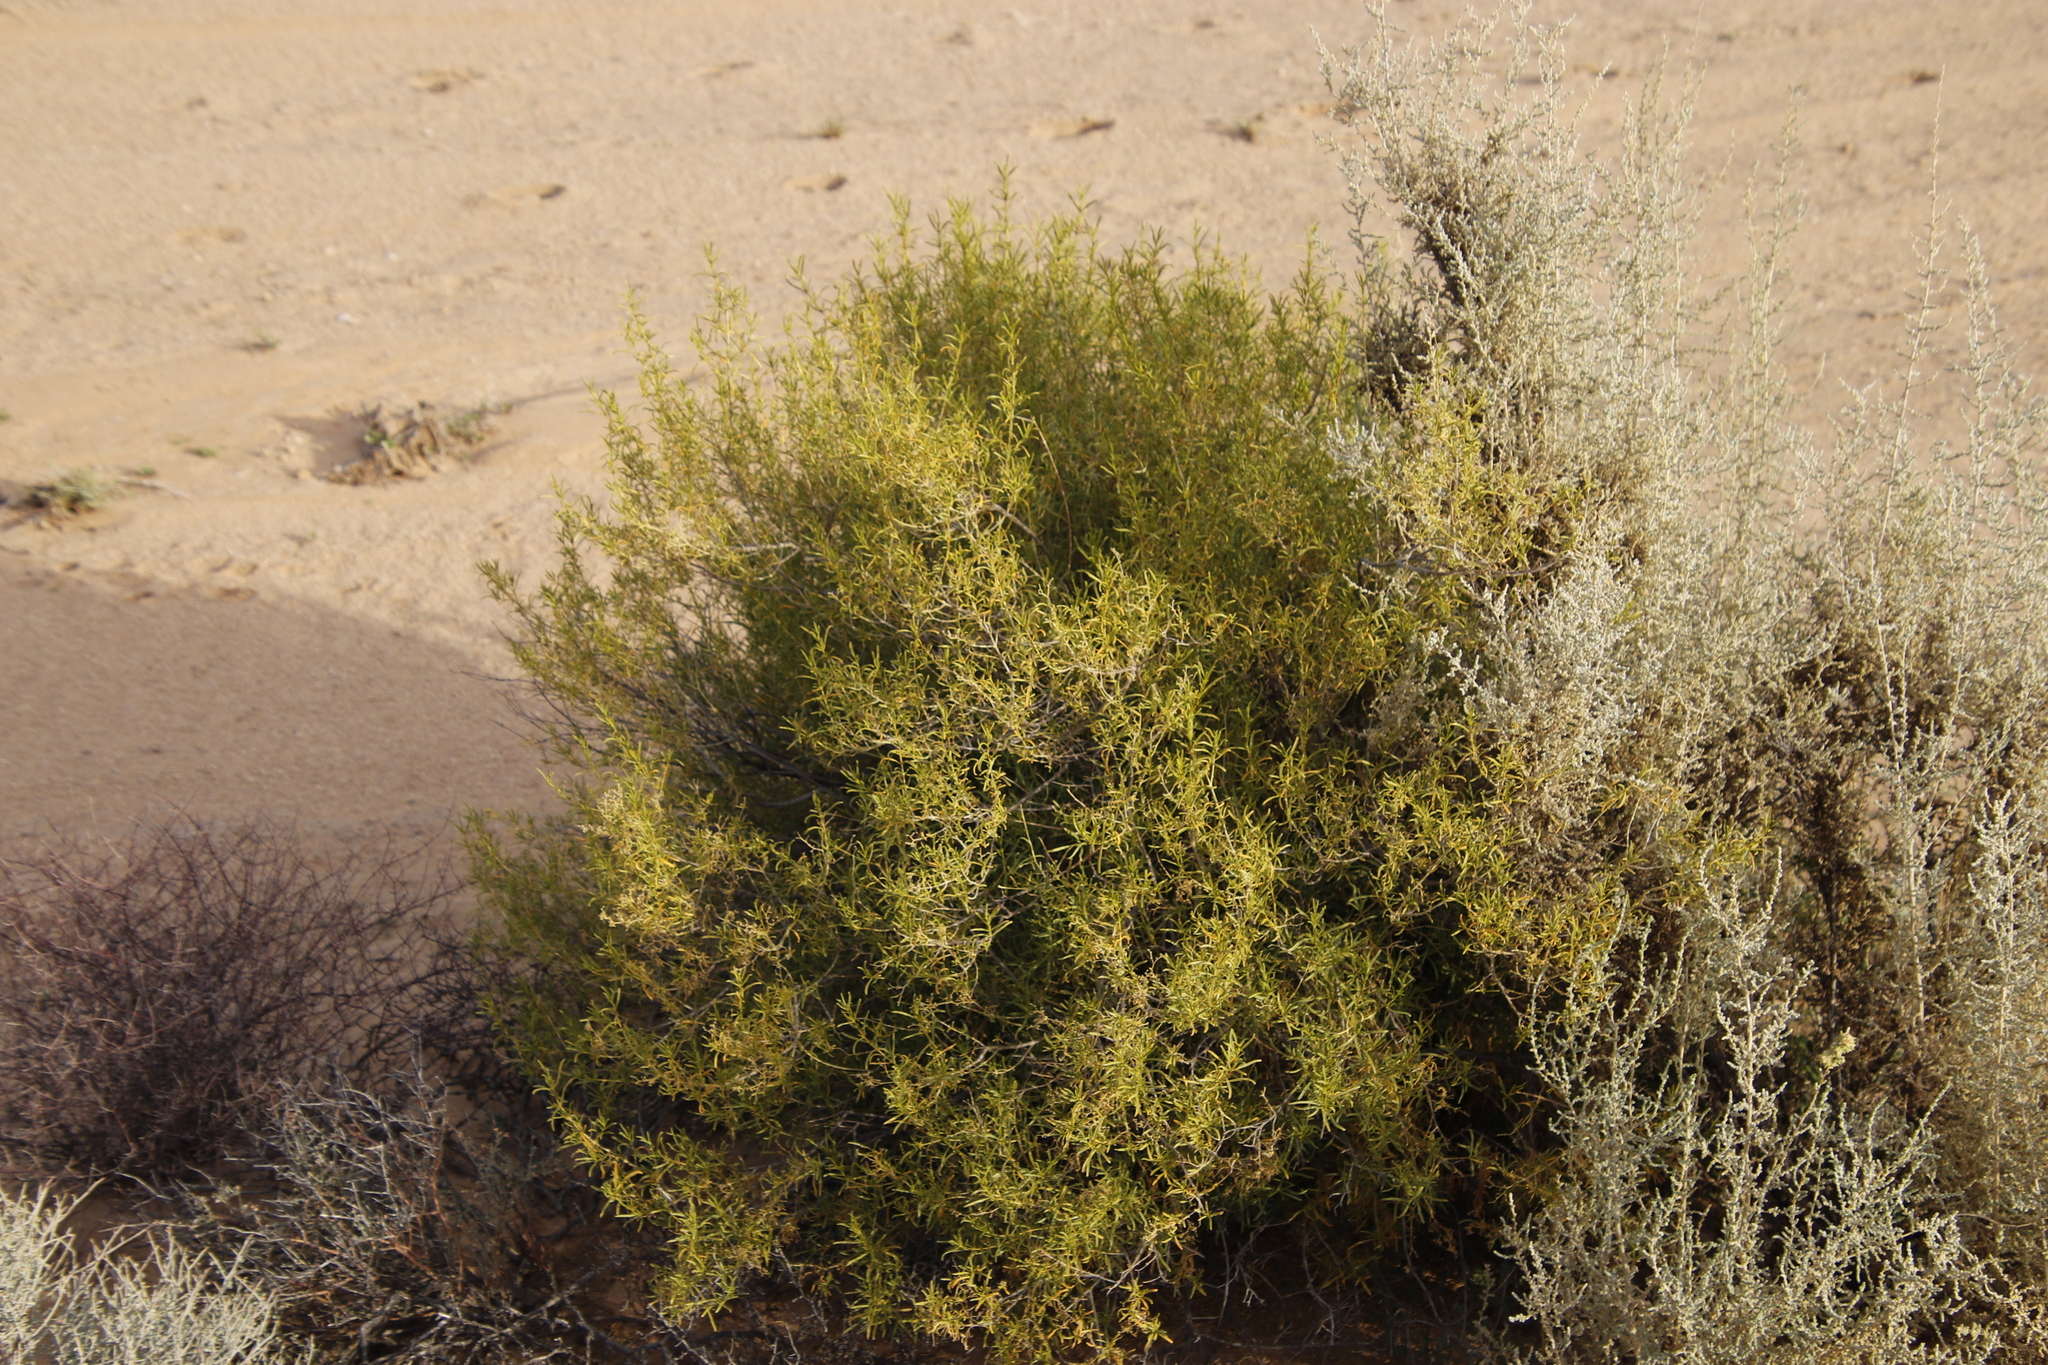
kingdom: Plantae
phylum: Tracheophyta
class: Magnoliopsida
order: Caryophyllales
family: Aizoaceae
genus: Aizoon
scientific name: Aizoon africanum
